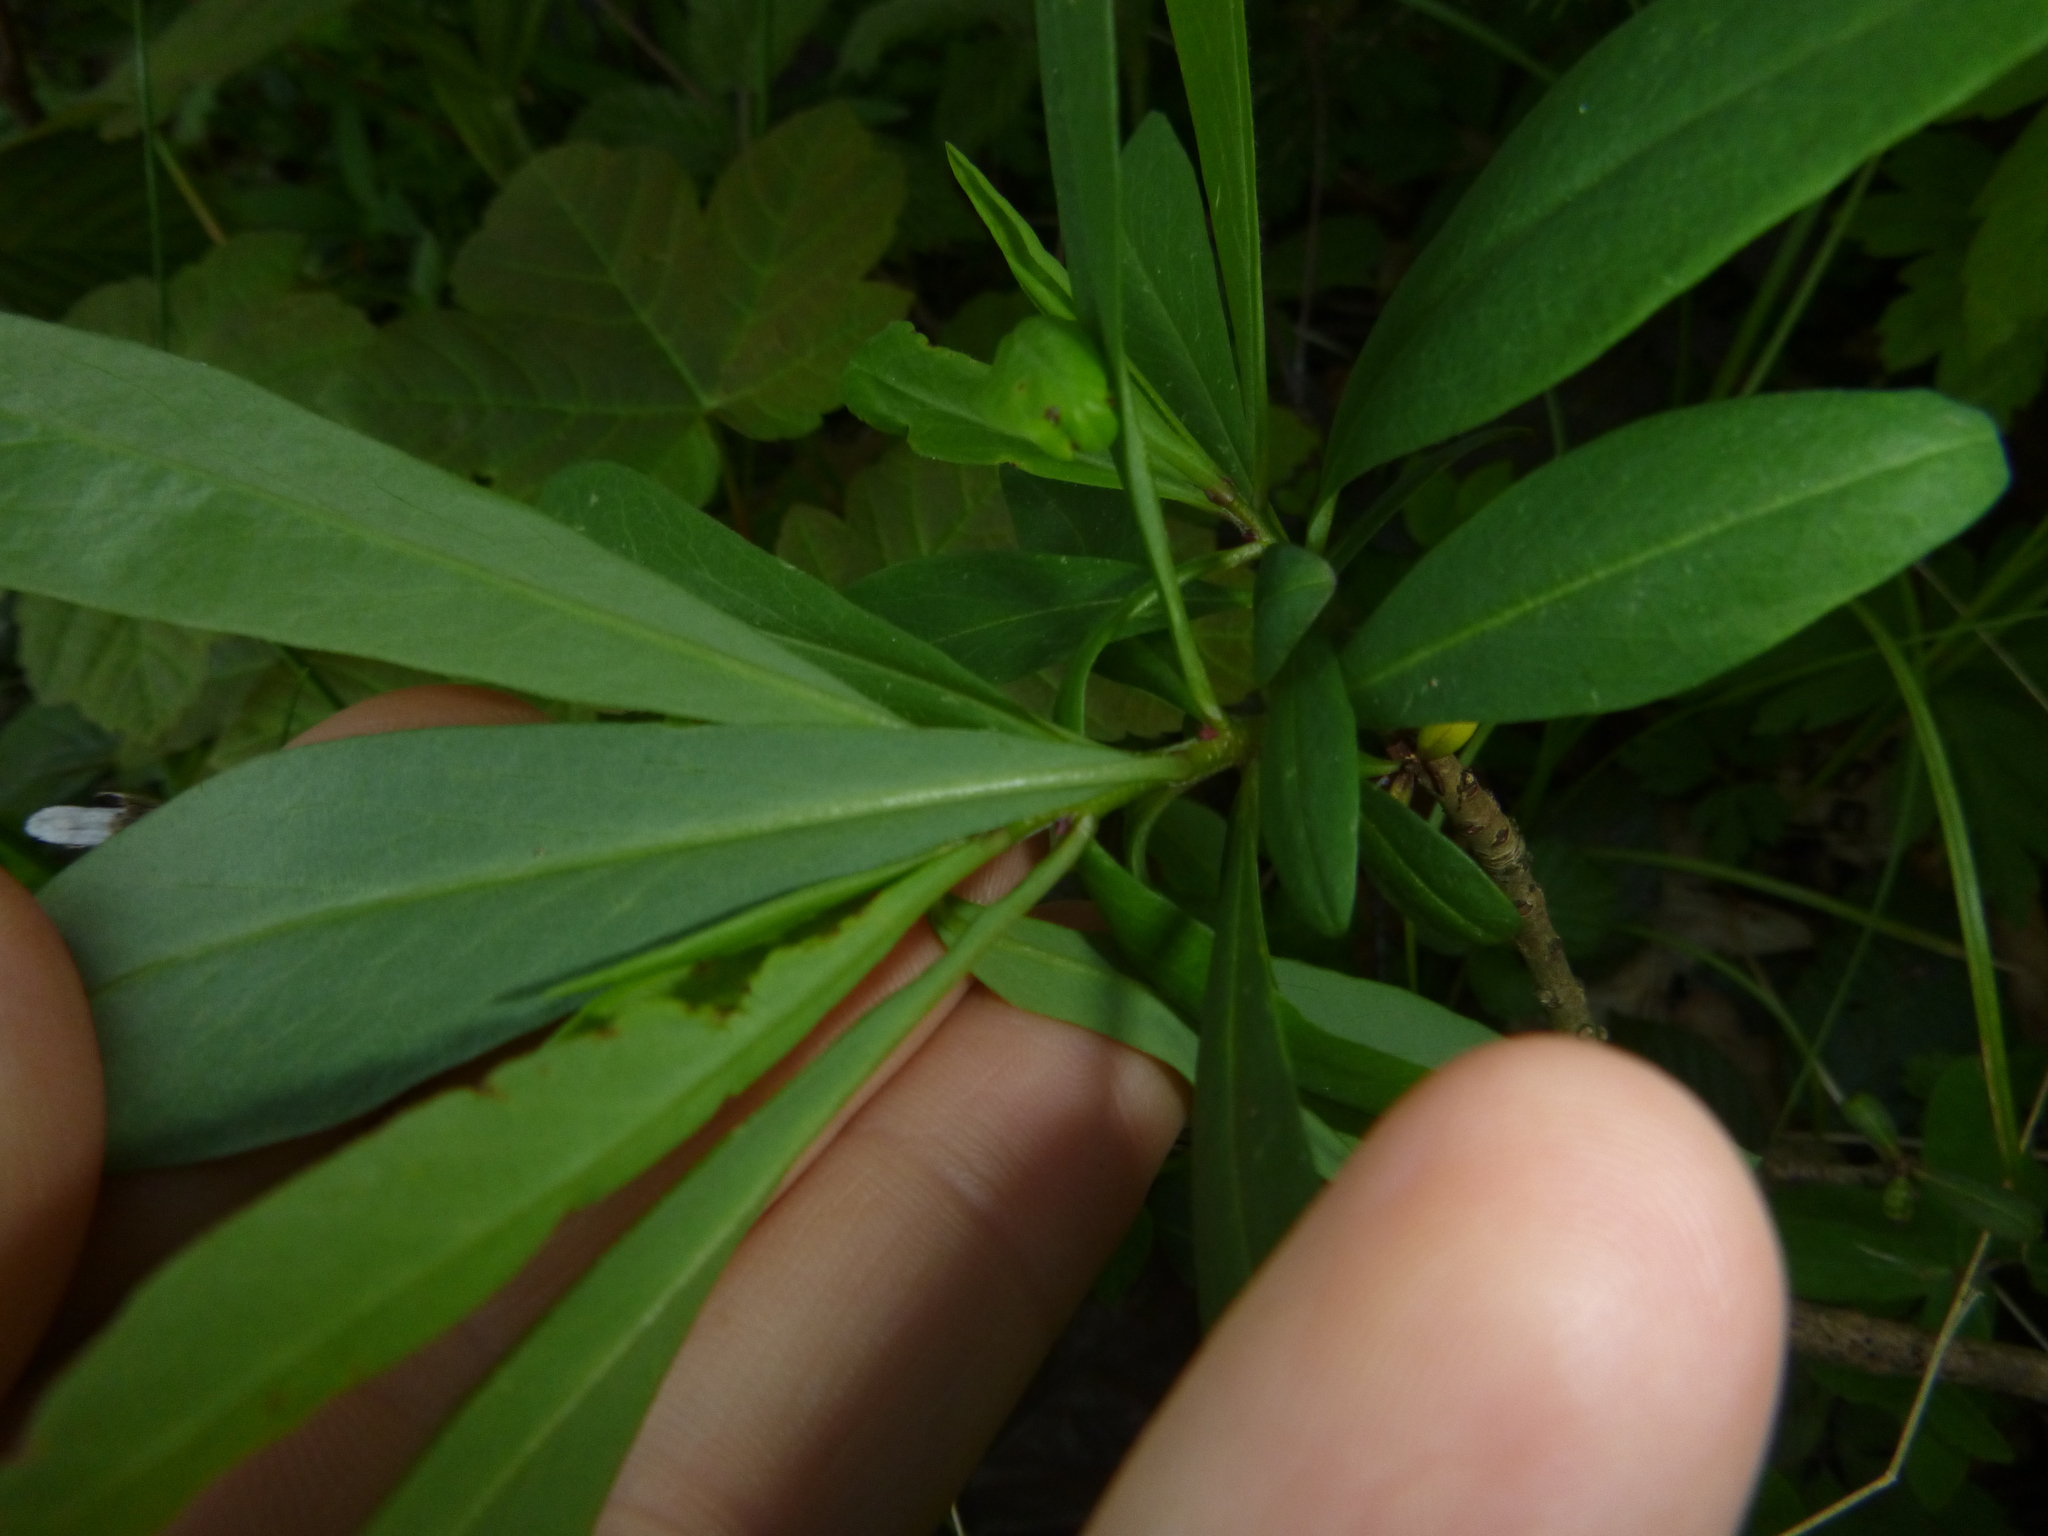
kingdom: Plantae
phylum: Tracheophyta
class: Magnoliopsida
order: Malvales
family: Thymelaeaceae
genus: Daphne
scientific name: Daphne mezereum
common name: Mezereon
